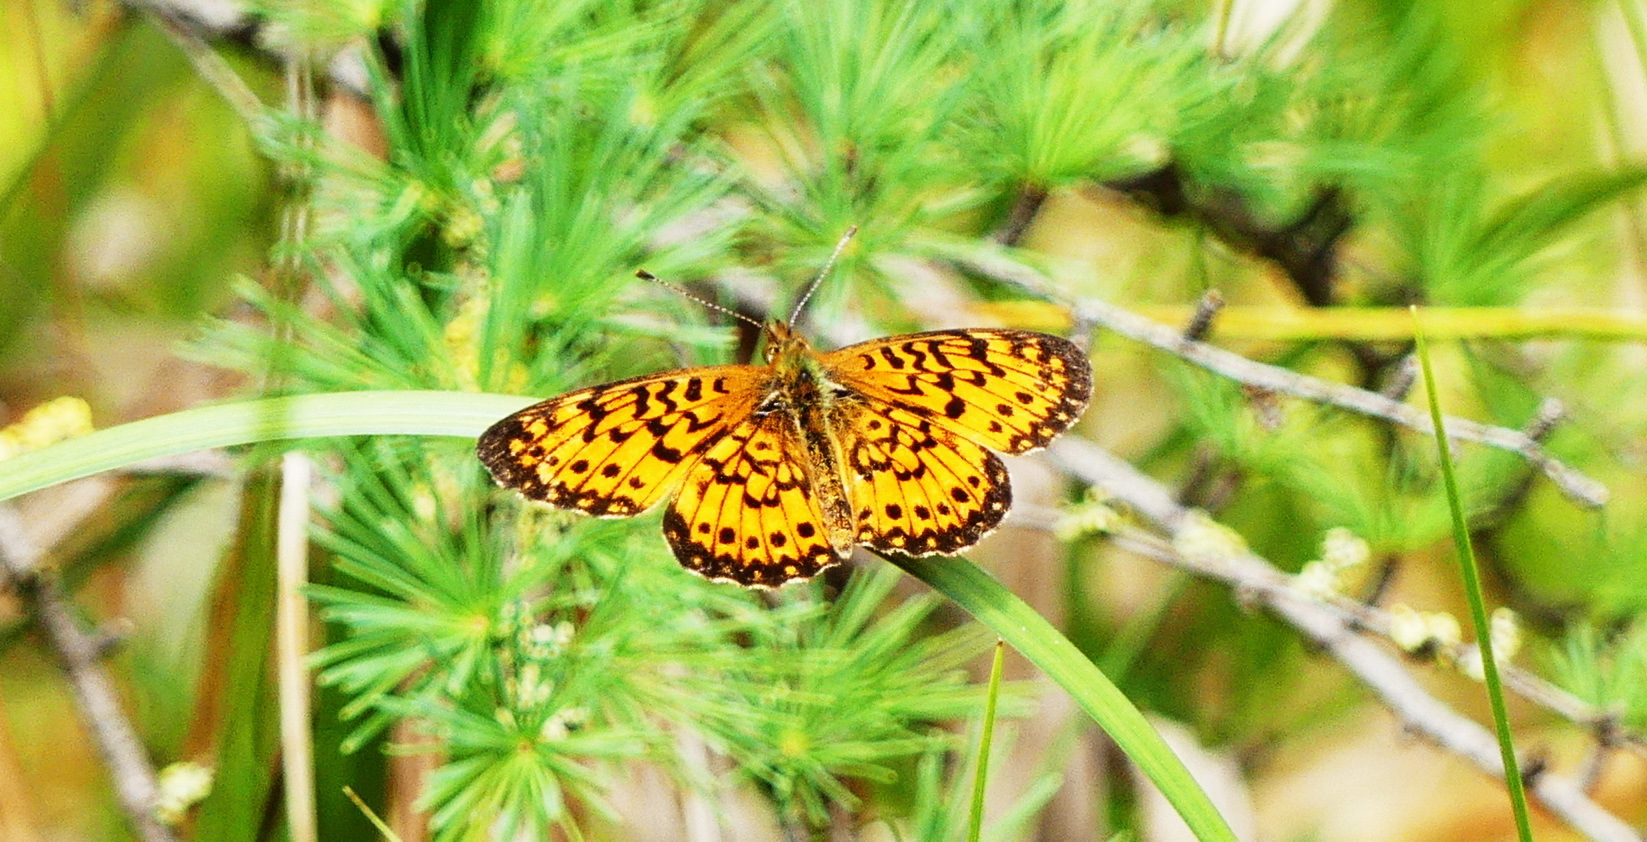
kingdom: Animalia
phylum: Arthropoda
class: Insecta
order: Lepidoptera
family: Nymphalidae
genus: Boloria
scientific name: Boloria
